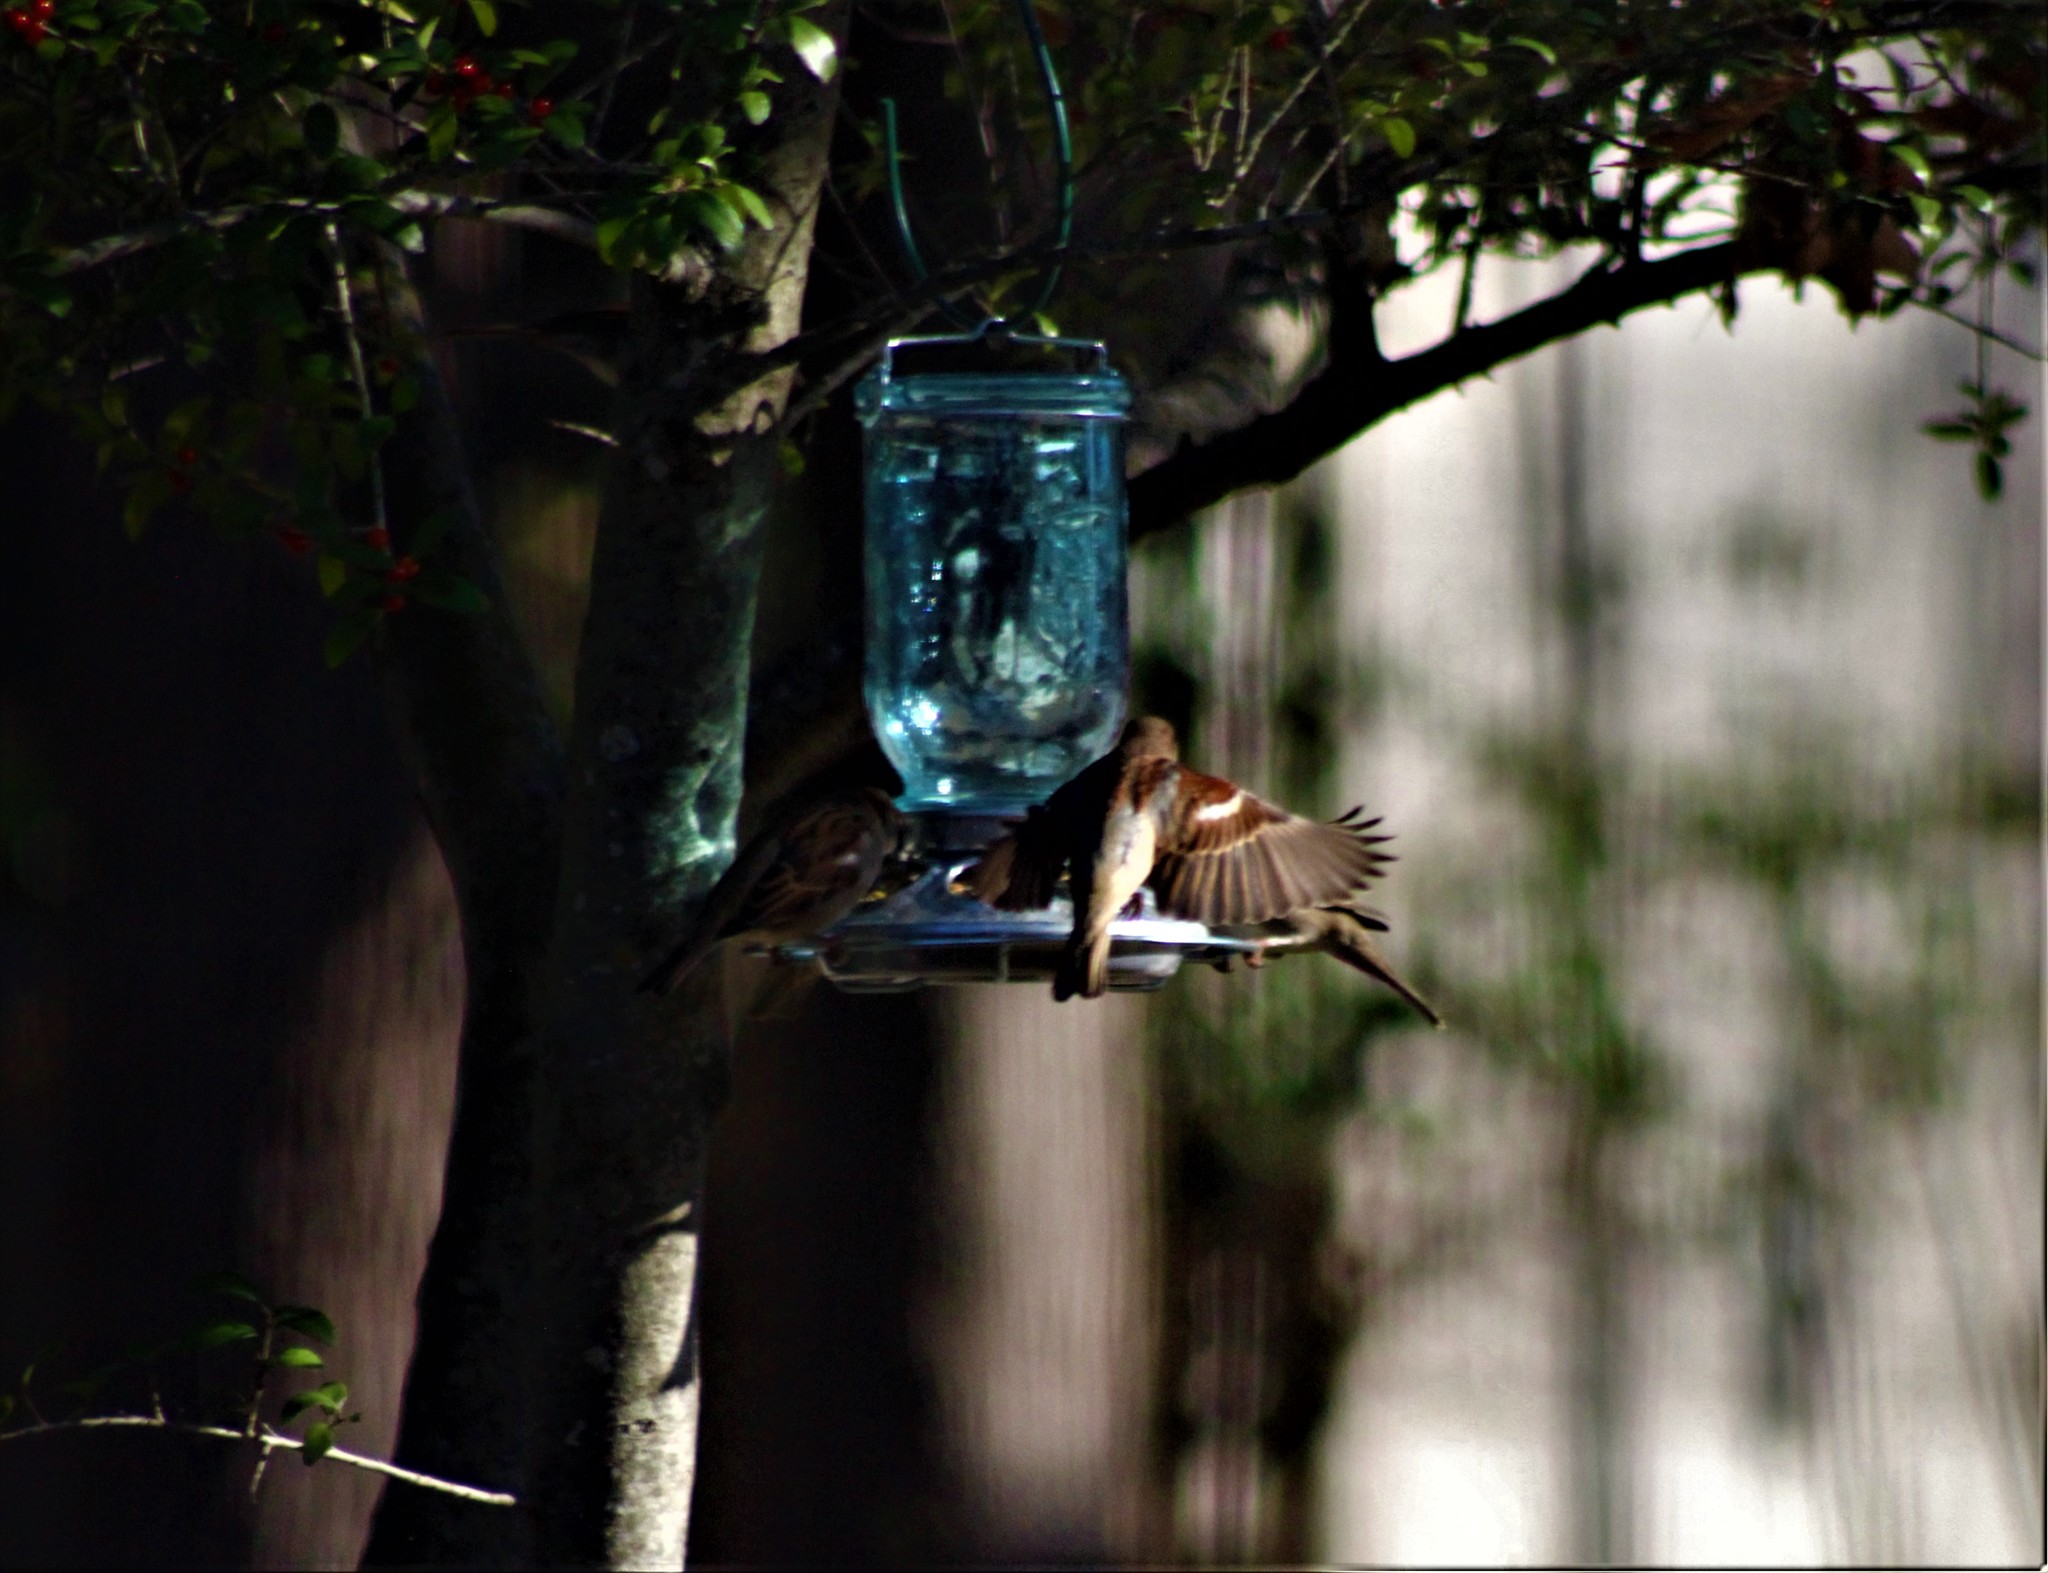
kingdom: Animalia
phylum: Chordata
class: Aves
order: Passeriformes
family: Passeridae
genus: Passer
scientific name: Passer domesticus
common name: House sparrow
